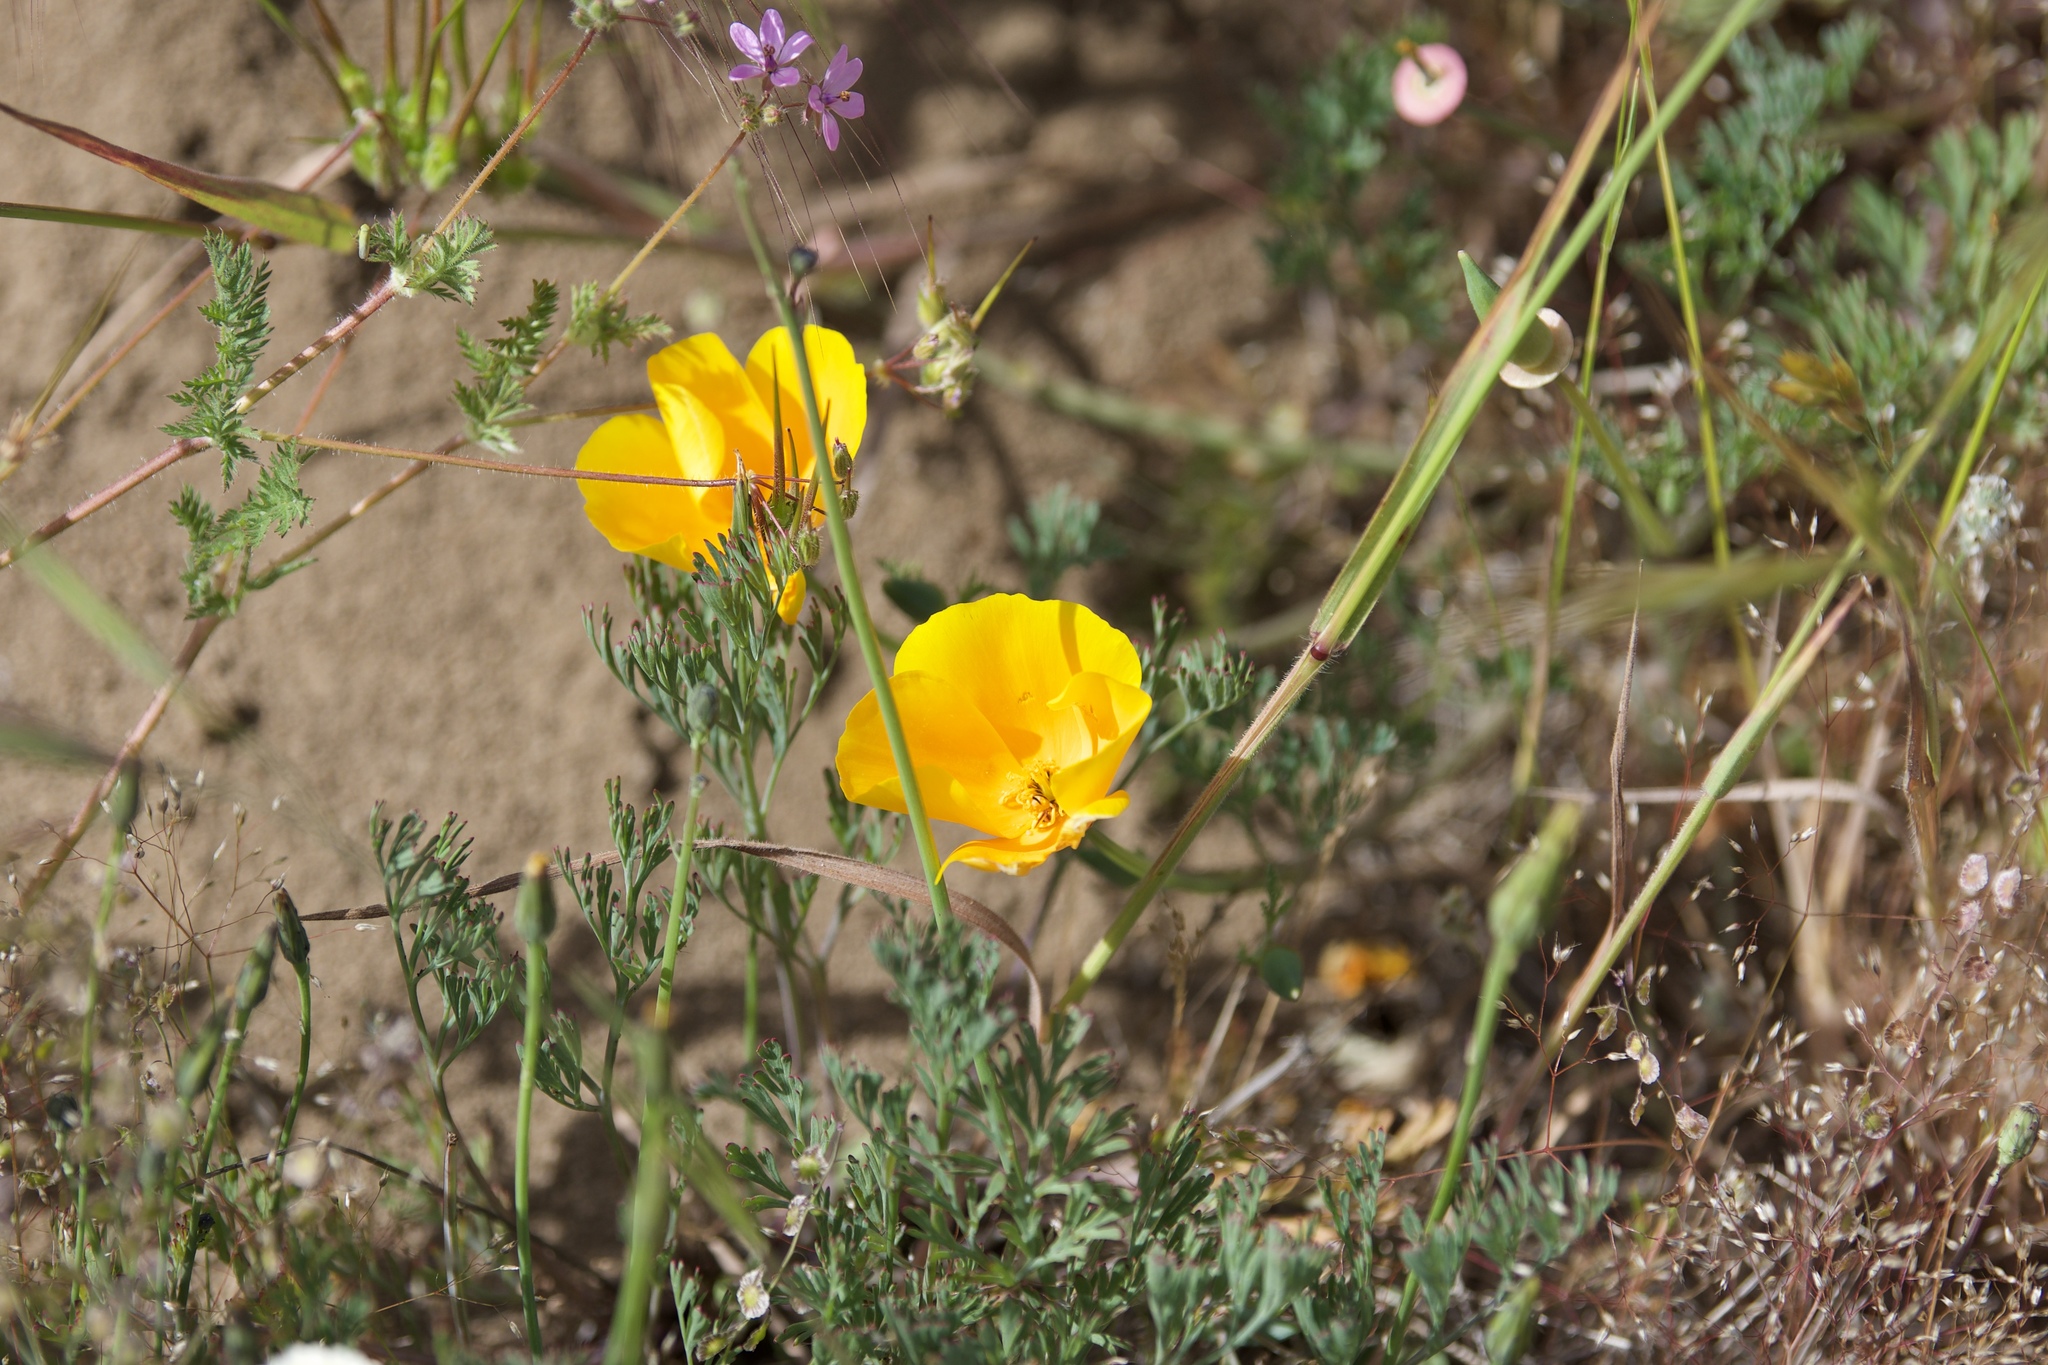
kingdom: Plantae
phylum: Tracheophyta
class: Magnoliopsida
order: Ranunculales
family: Papaveraceae
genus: Eschscholzia
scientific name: Eschscholzia californica
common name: California poppy
